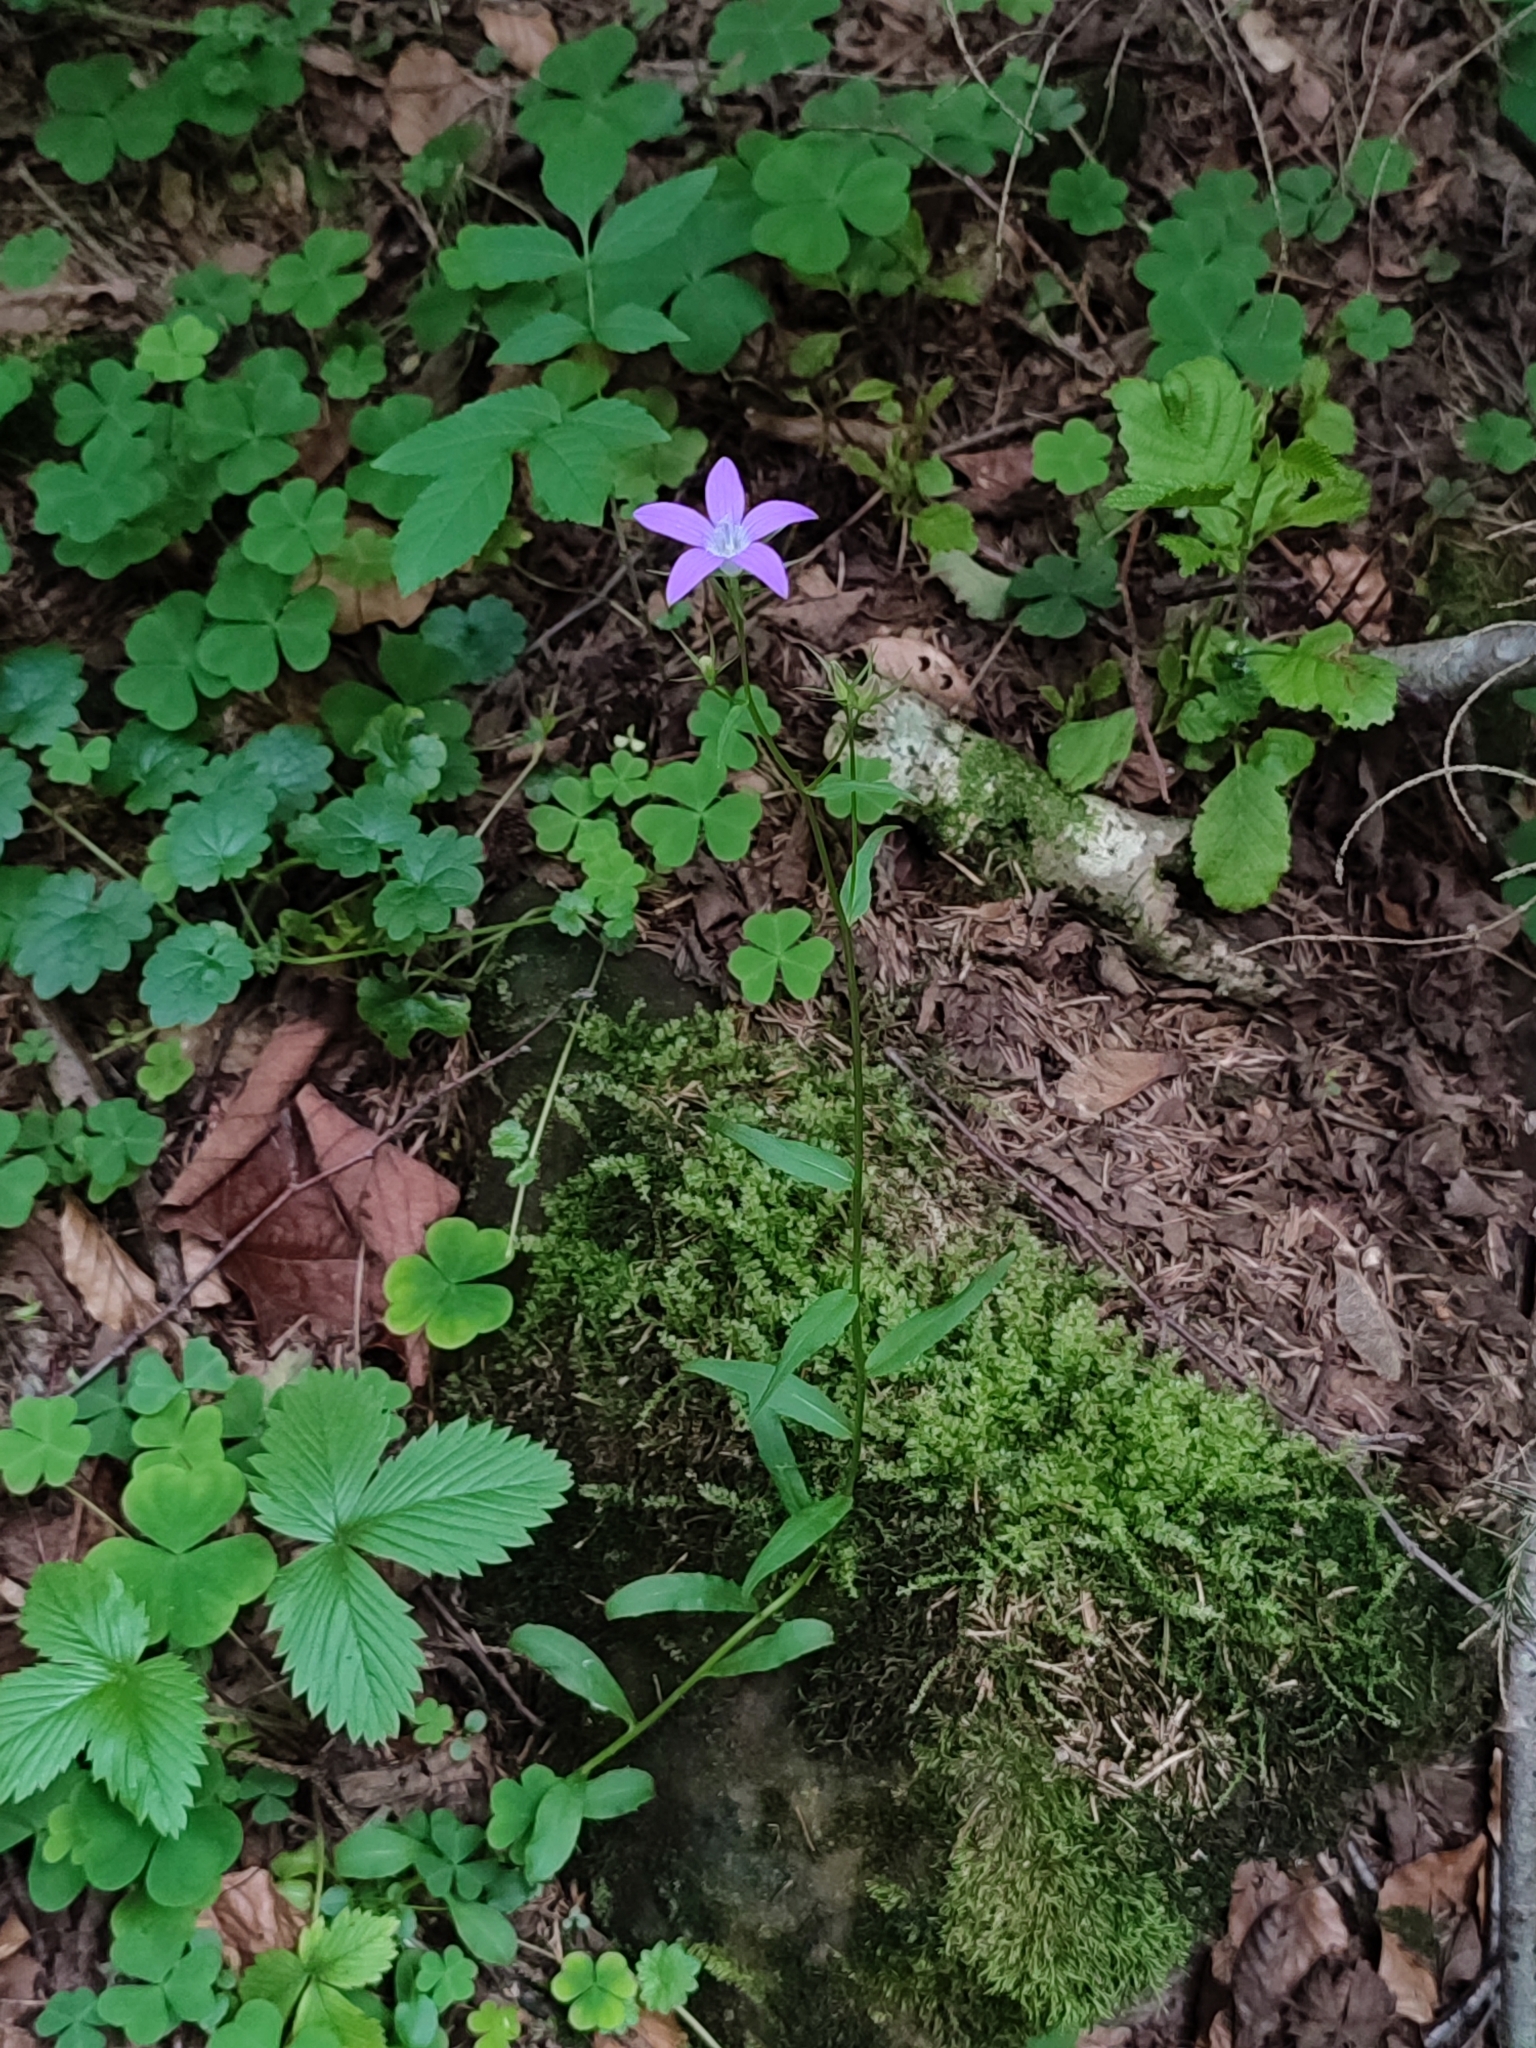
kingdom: Plantae
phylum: Tracheophyta
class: Magnoliopsida
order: Asterales
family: Campanulaceae
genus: Campanula
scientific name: Campanula patula
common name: Spreading bellflower
